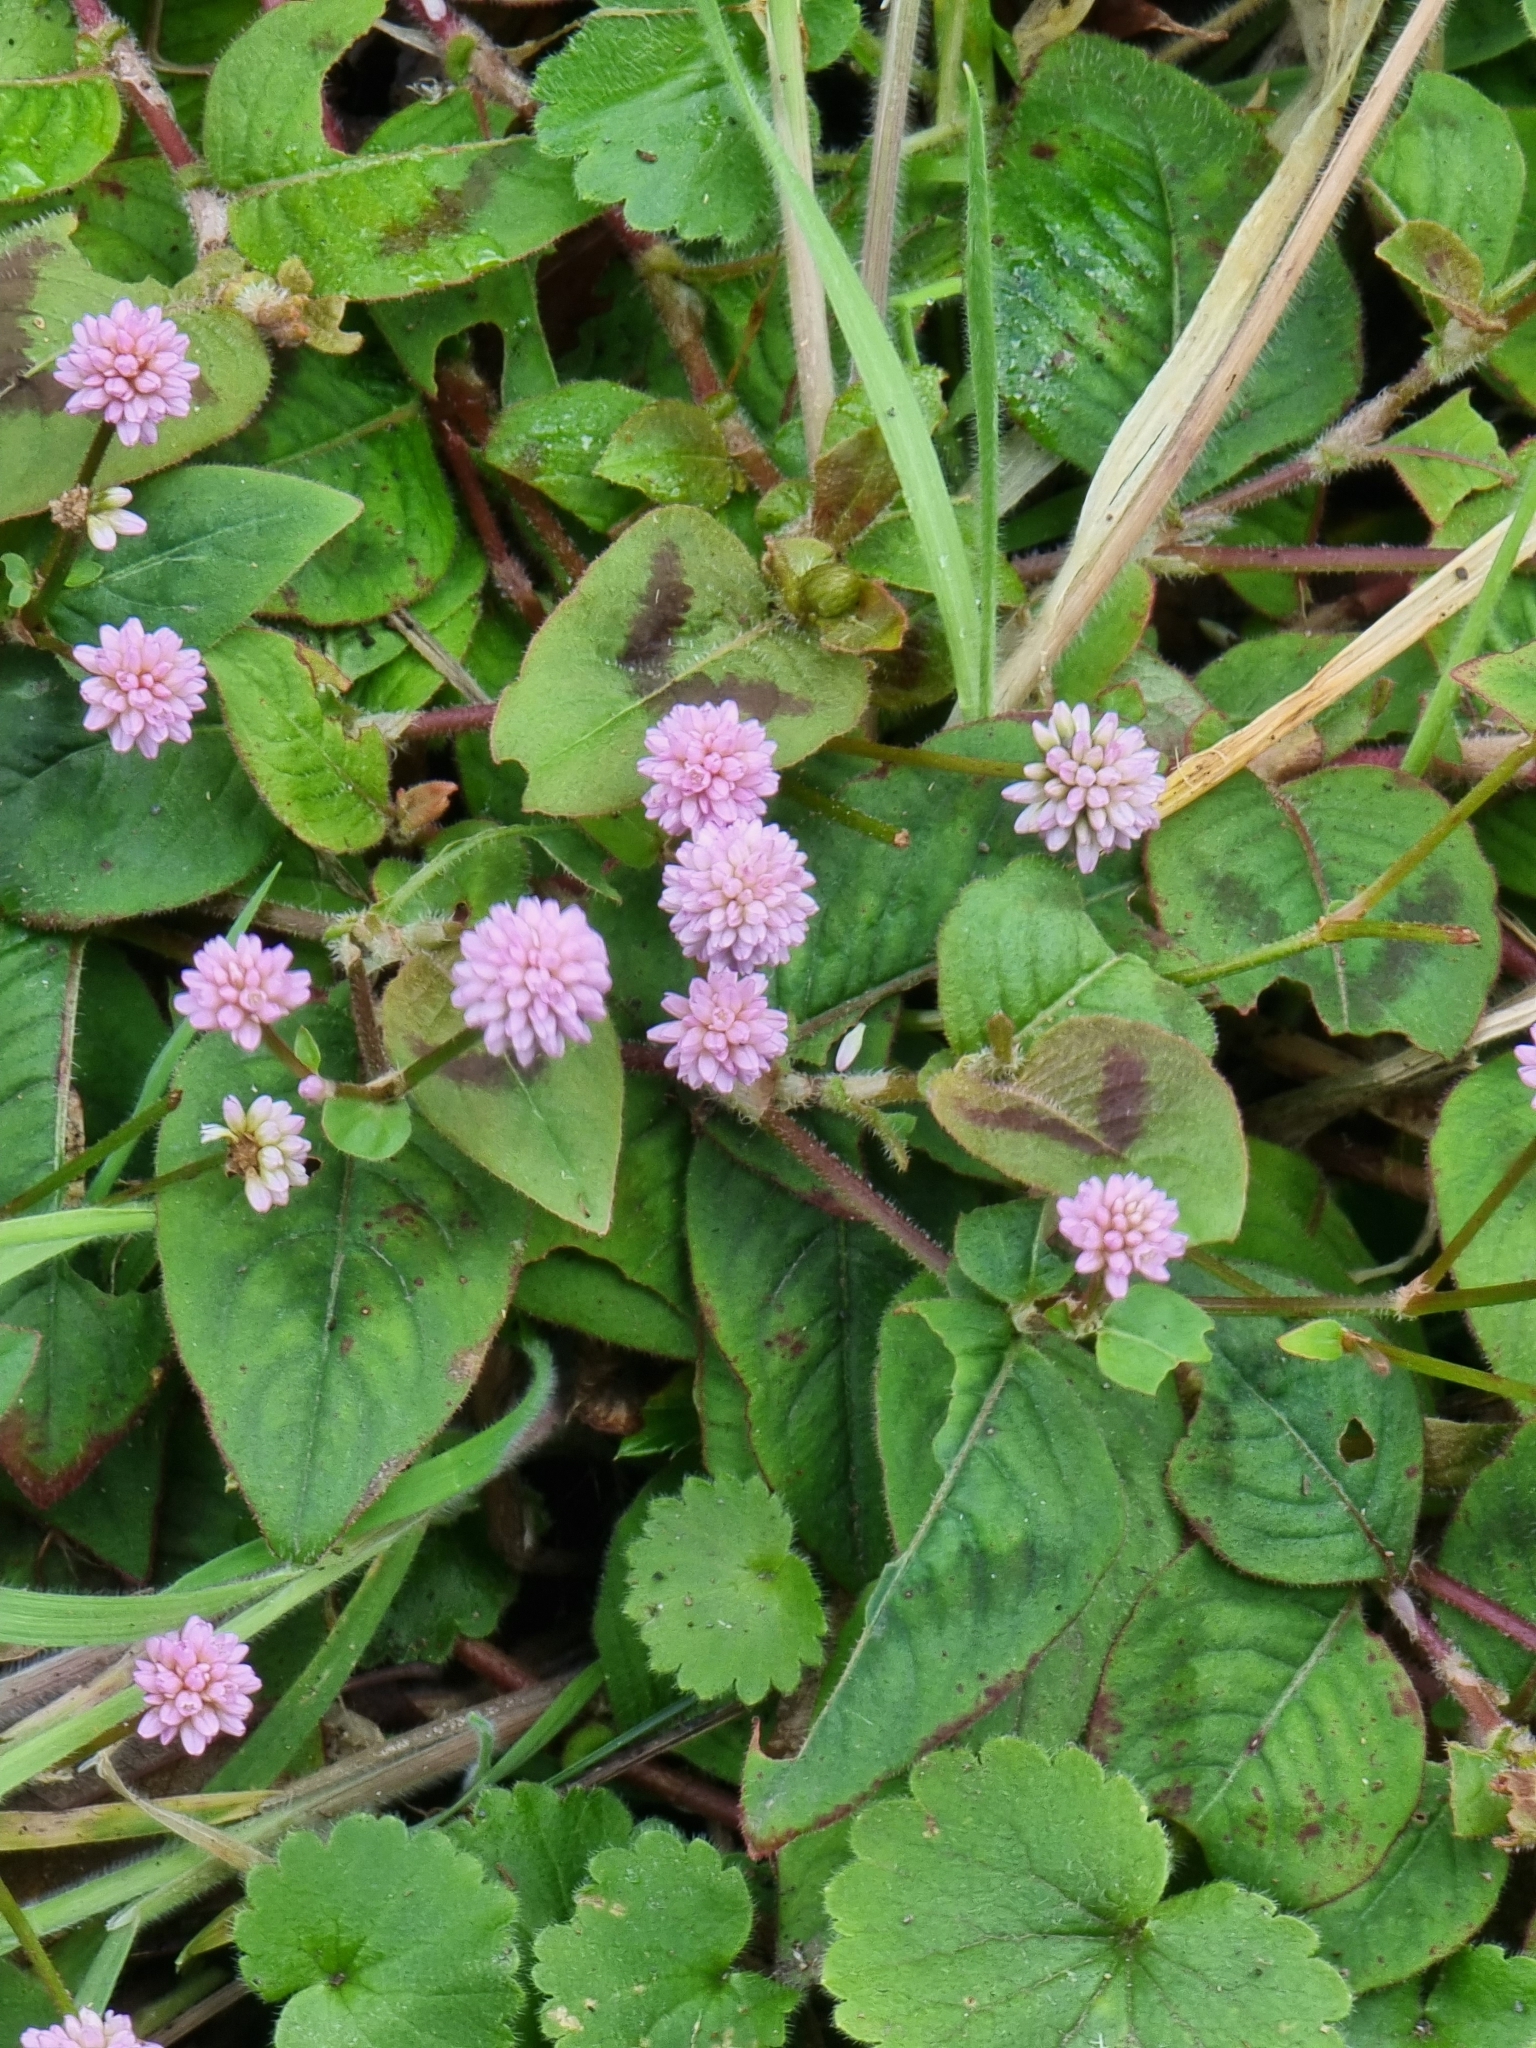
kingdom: Plantae
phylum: Tracheophyta
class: Magnoliopsida
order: Caryophyllales
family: Polygonaceae
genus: Persicaria
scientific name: Persicaria capitata
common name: Pinkhead smartweed
